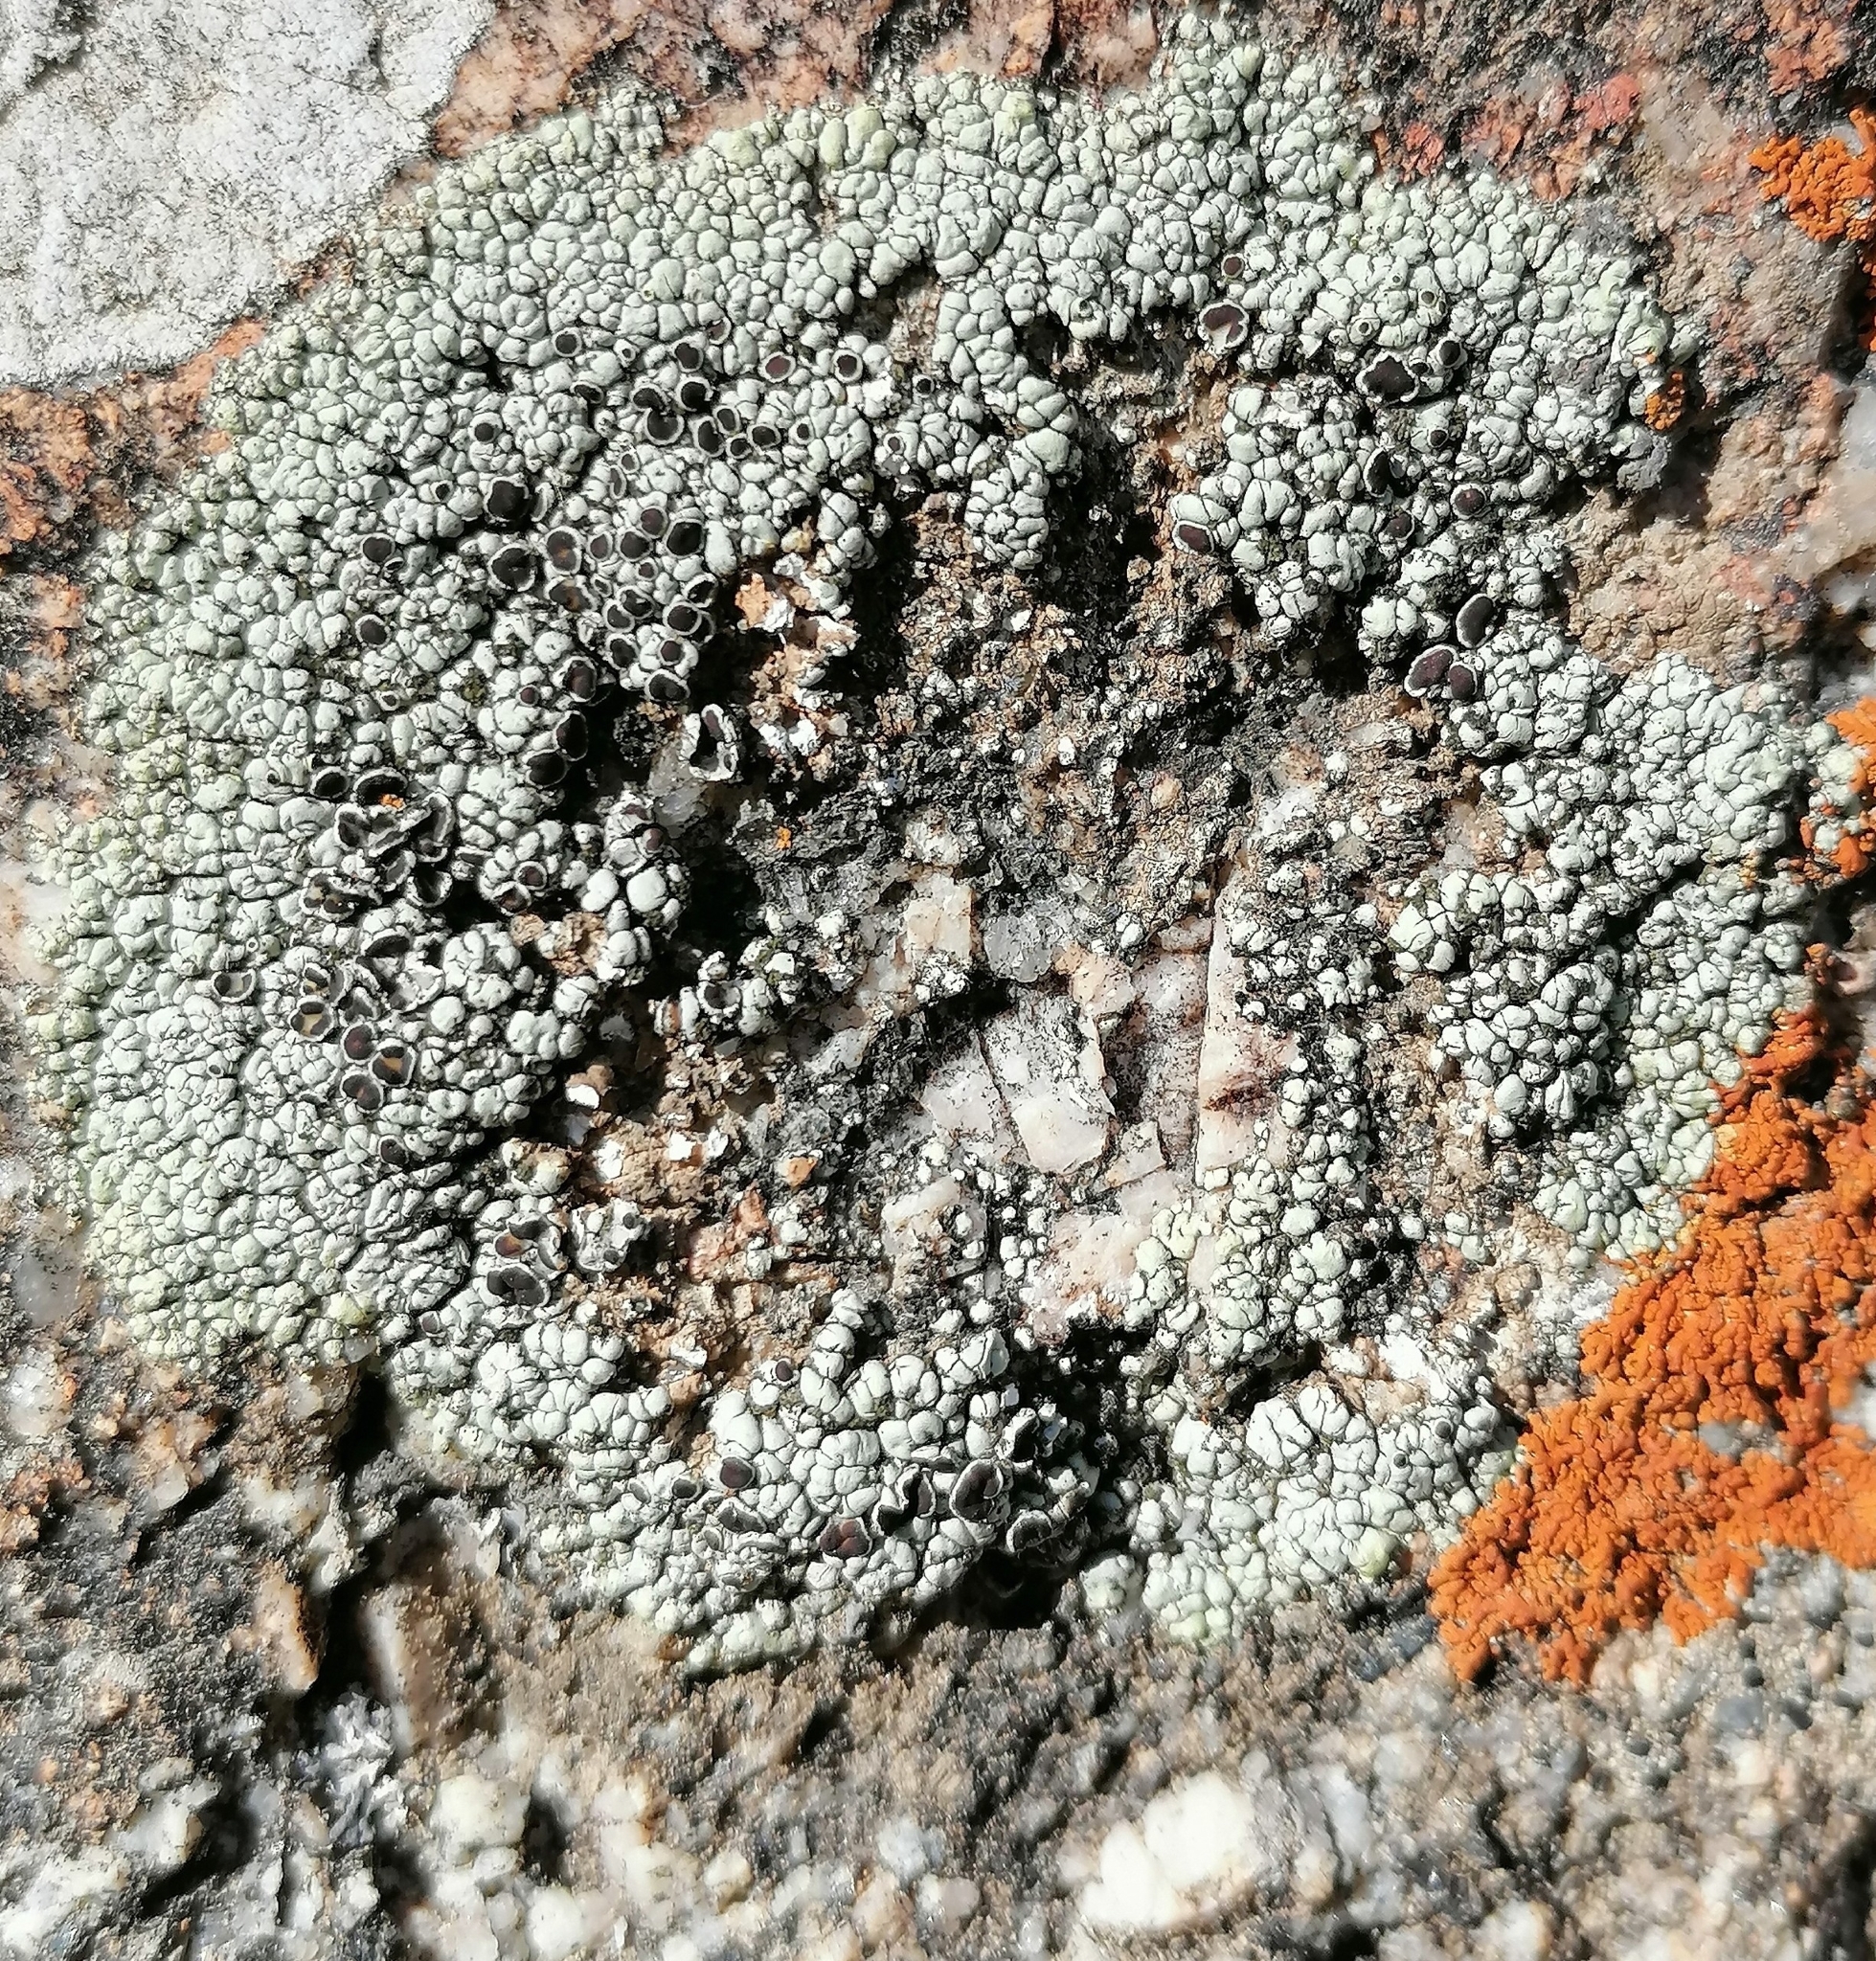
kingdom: Fungi
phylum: Ascomycota
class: Lecanoromycetes
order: Lecanorales
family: Lecanoraceae
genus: Lecanora
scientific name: Lecanora argopholis
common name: Varying rim lichen
